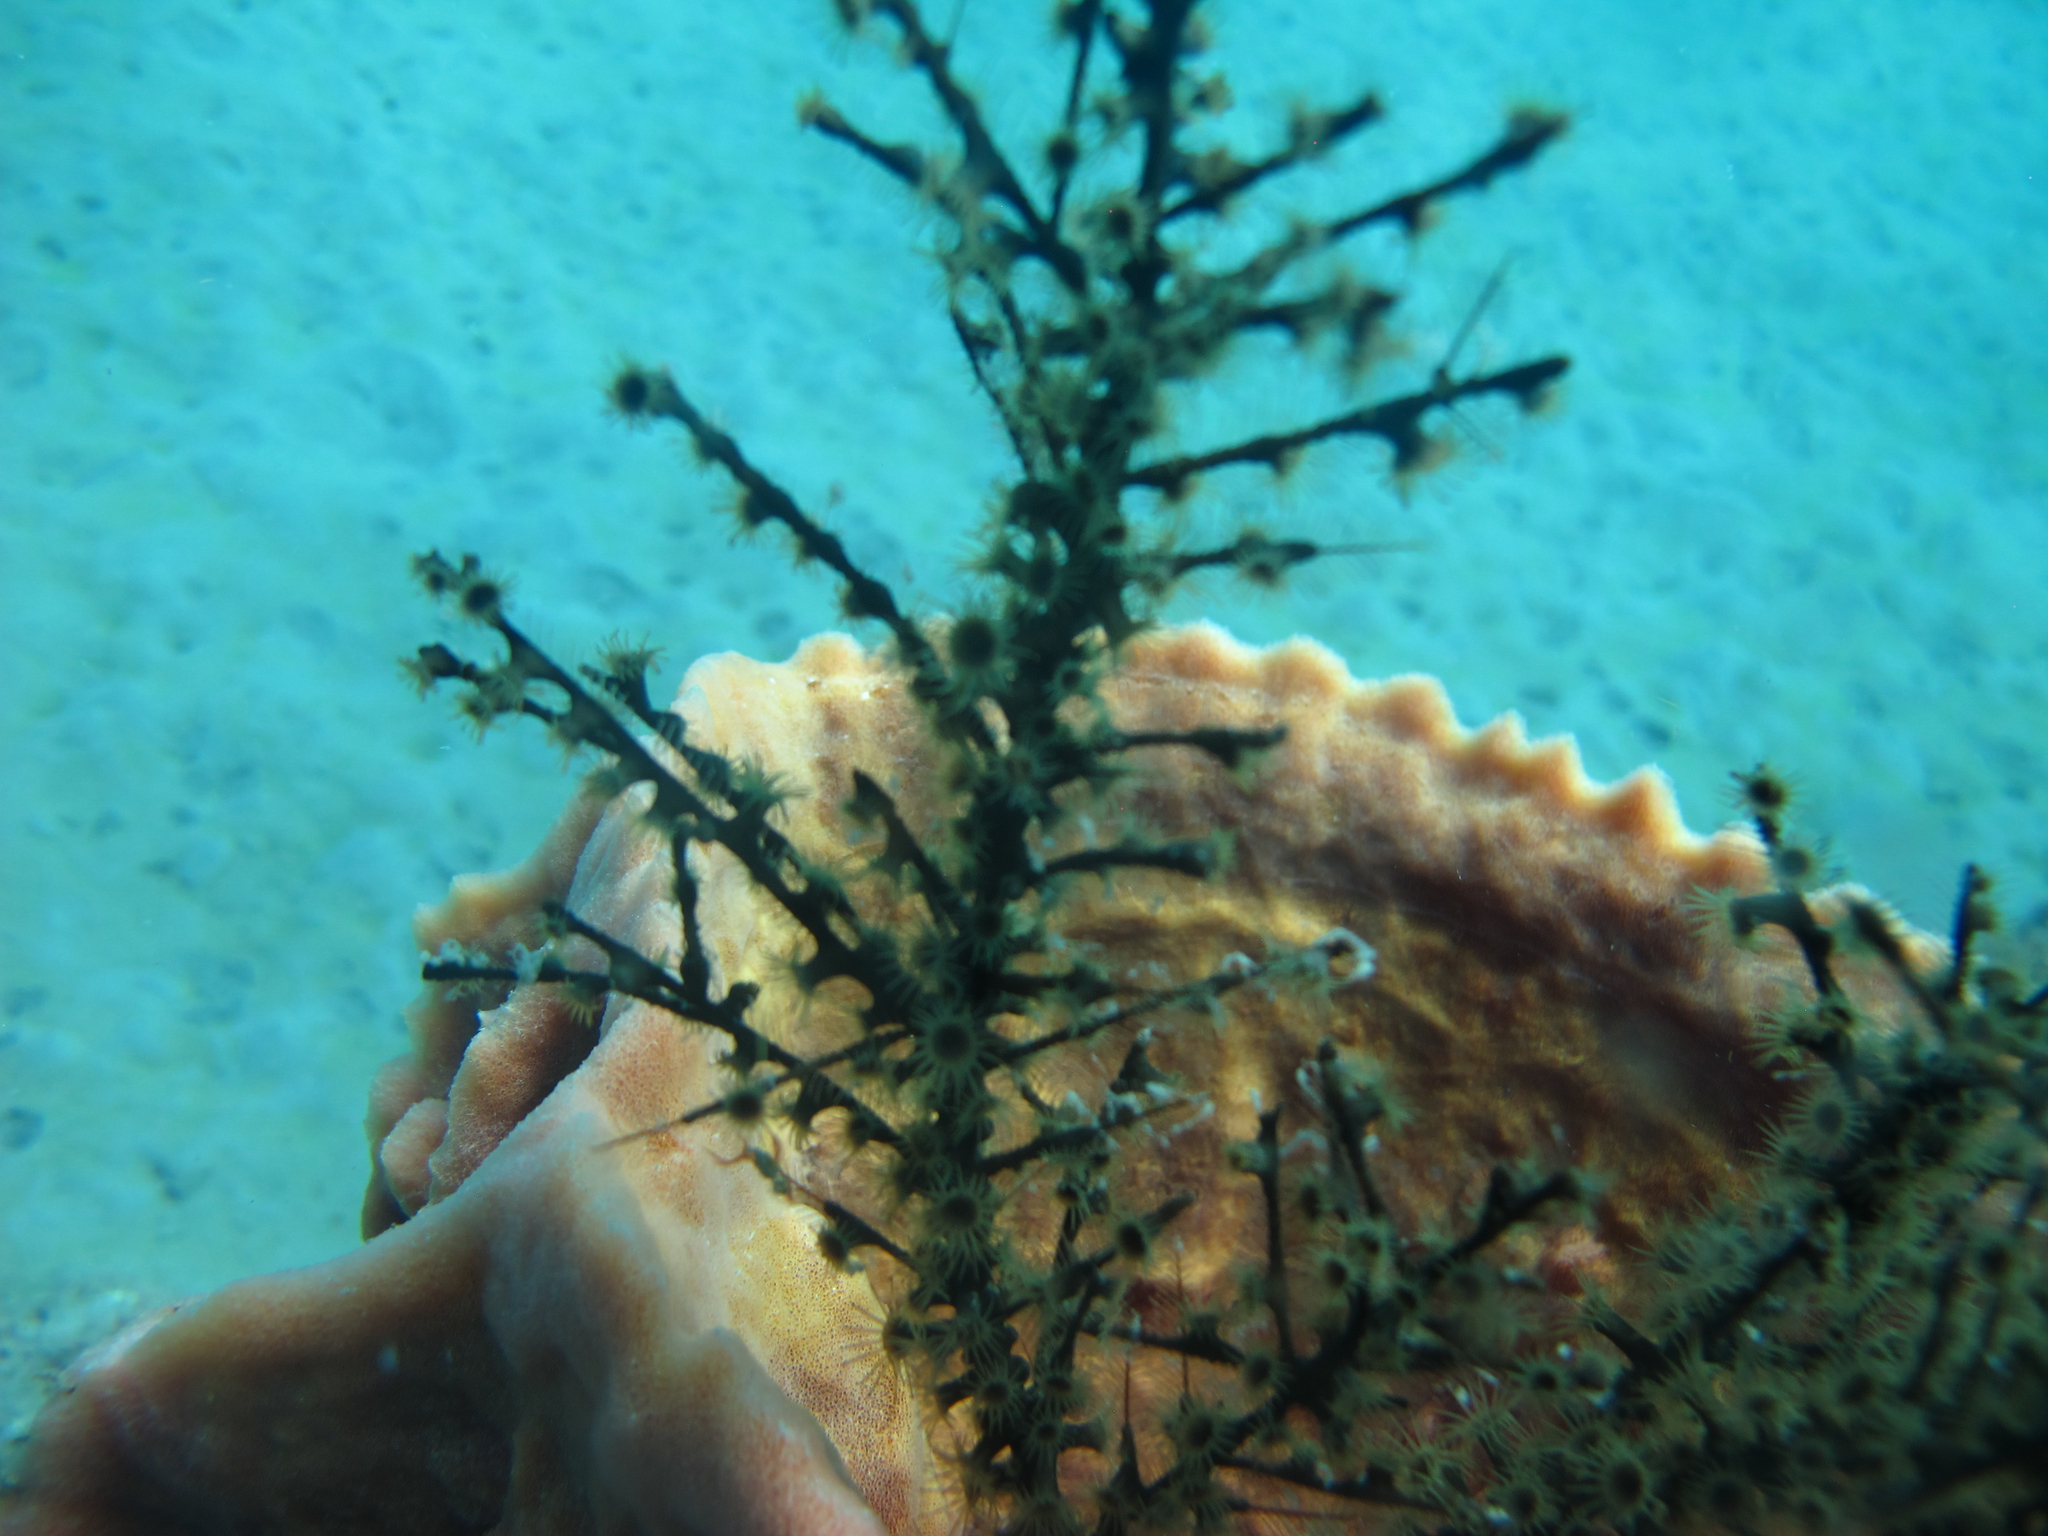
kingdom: Animalia
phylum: Cnidaria
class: Anthozoa
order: Zoantharia
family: Hydrozoanthidae
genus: Hydrozoanthus
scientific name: Hydrozoanthus antumbrosus
